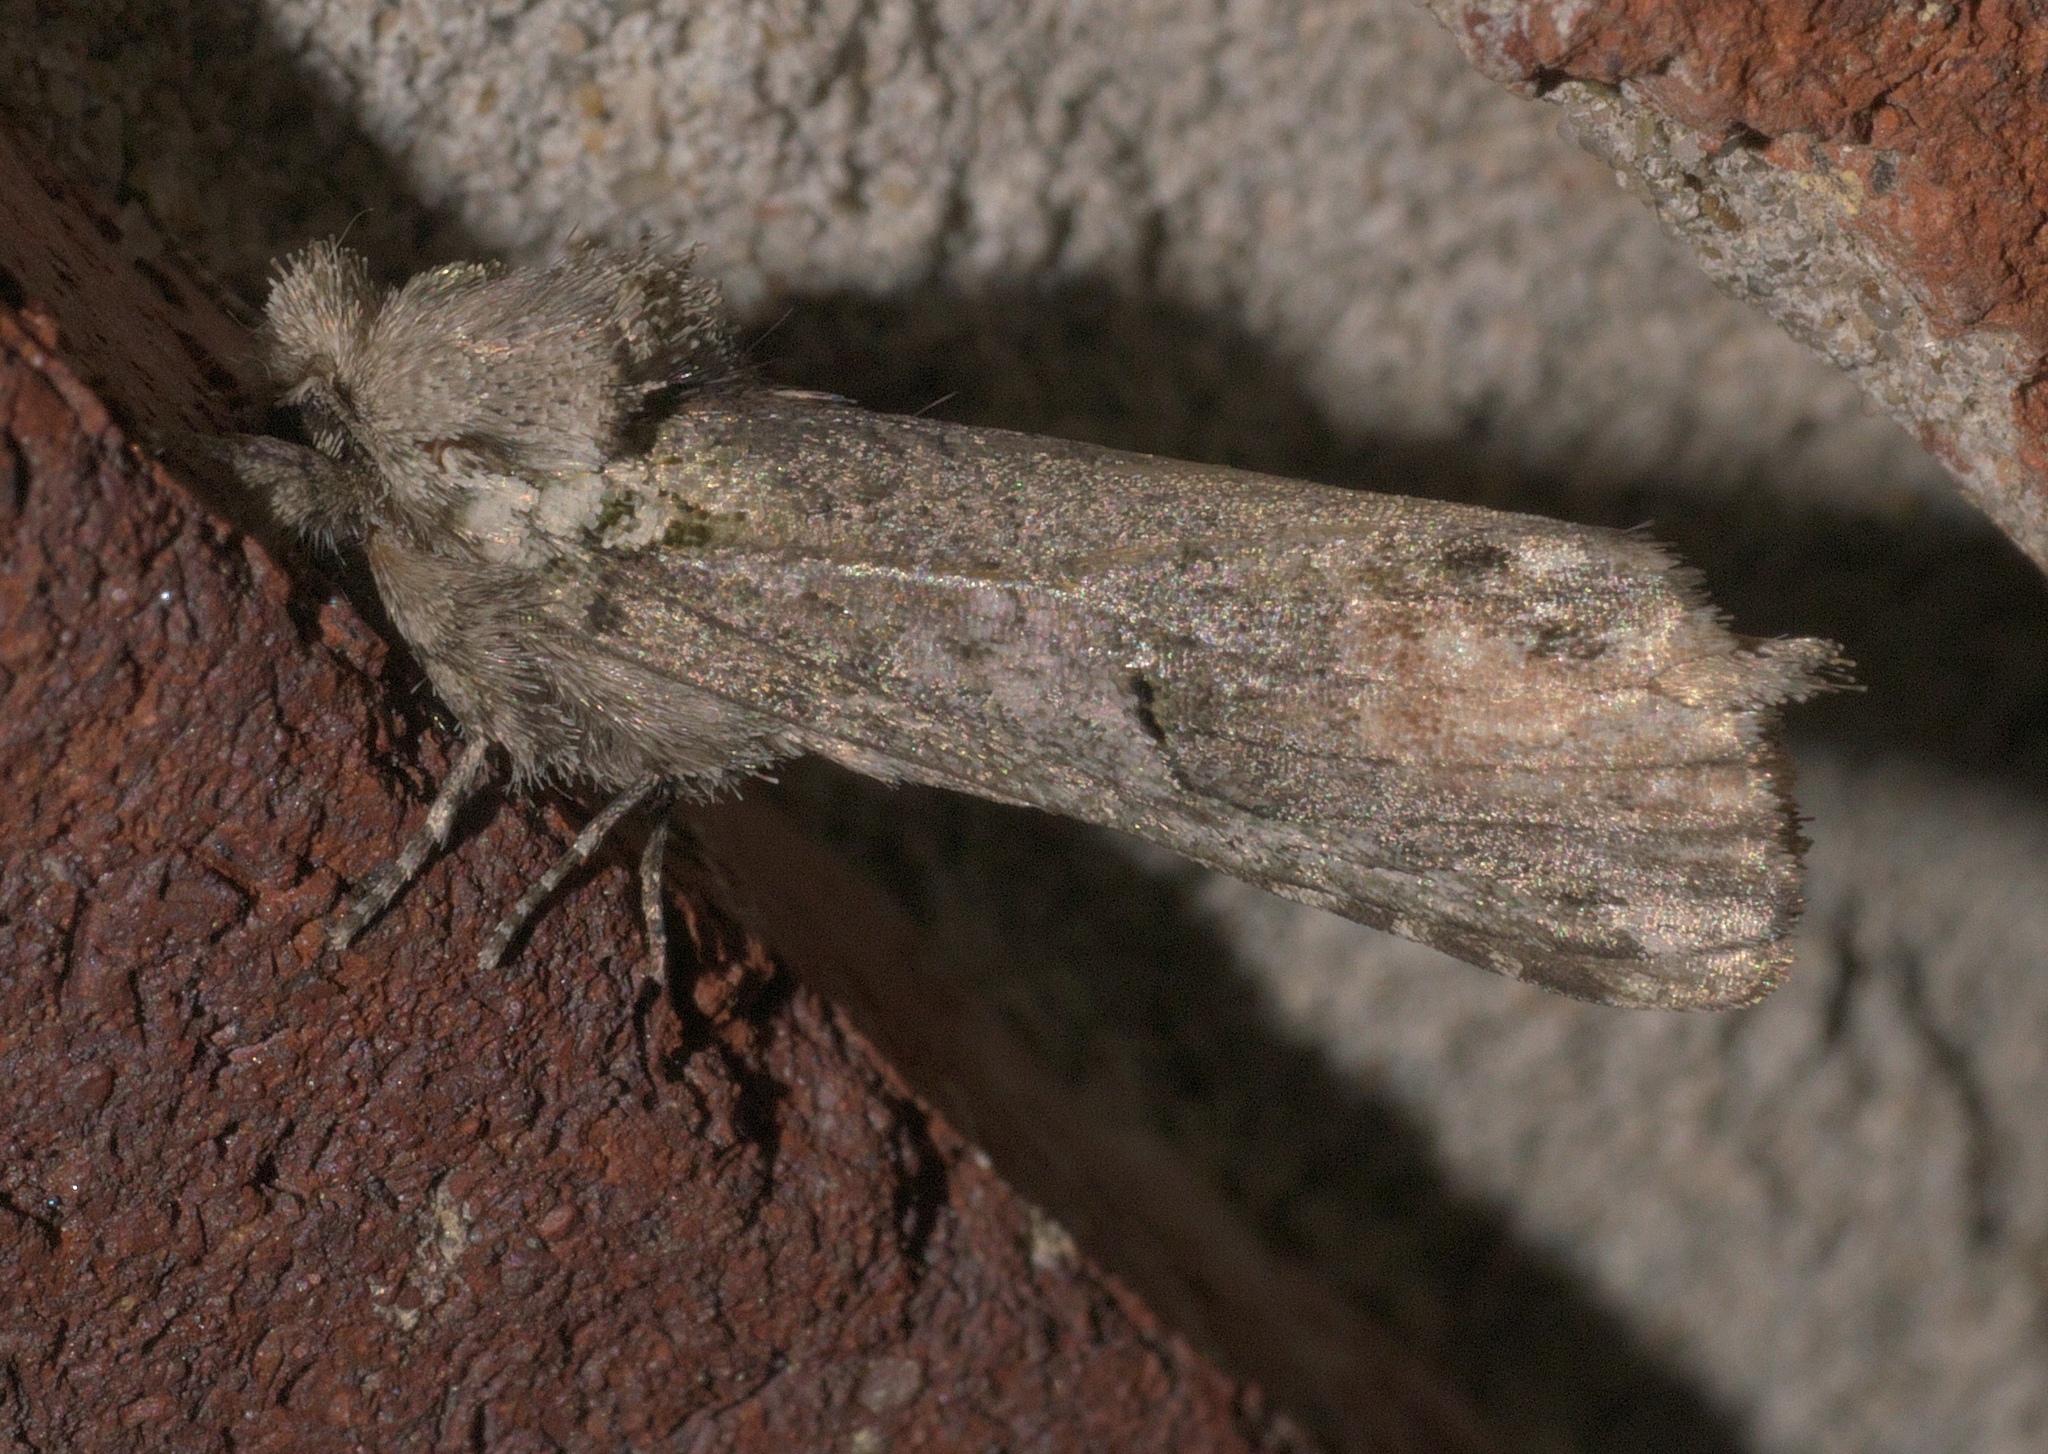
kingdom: Animalia
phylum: Arthropoda
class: Insecta
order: Lepidoptera
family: Notodontidae
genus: Schizura
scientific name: Schizura
